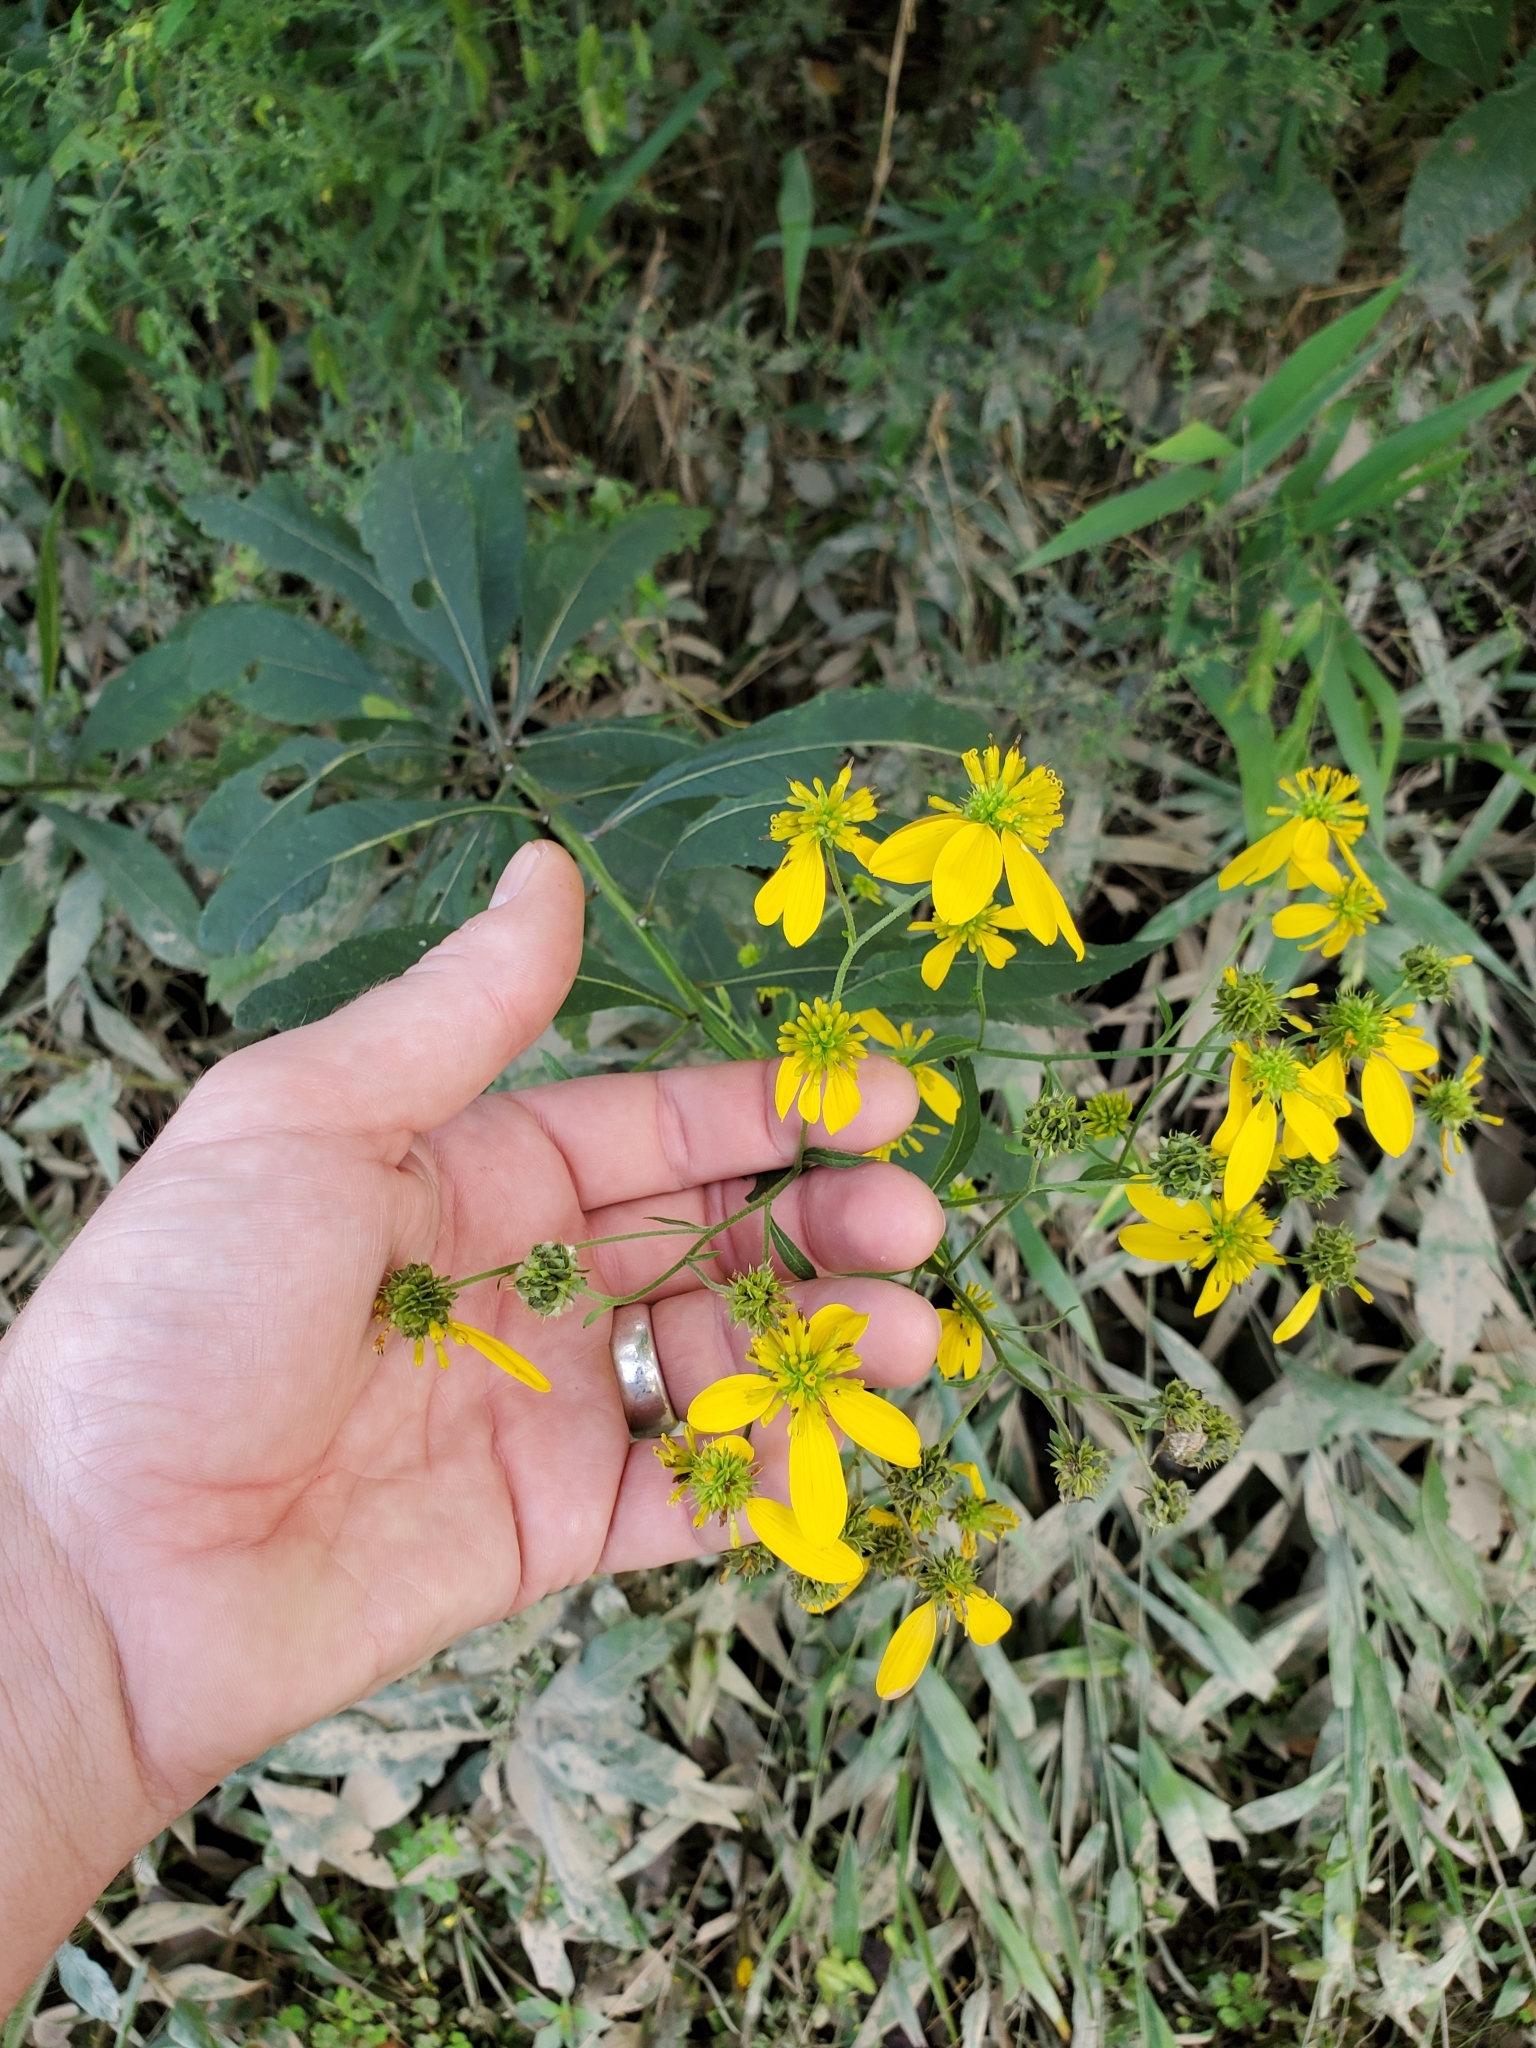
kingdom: Plantae
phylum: Tracheophyta
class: Magnoliopsida
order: Asterales
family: Asteraceae
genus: Verbesina
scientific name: Verbesina alternifolia
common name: Wingstem
